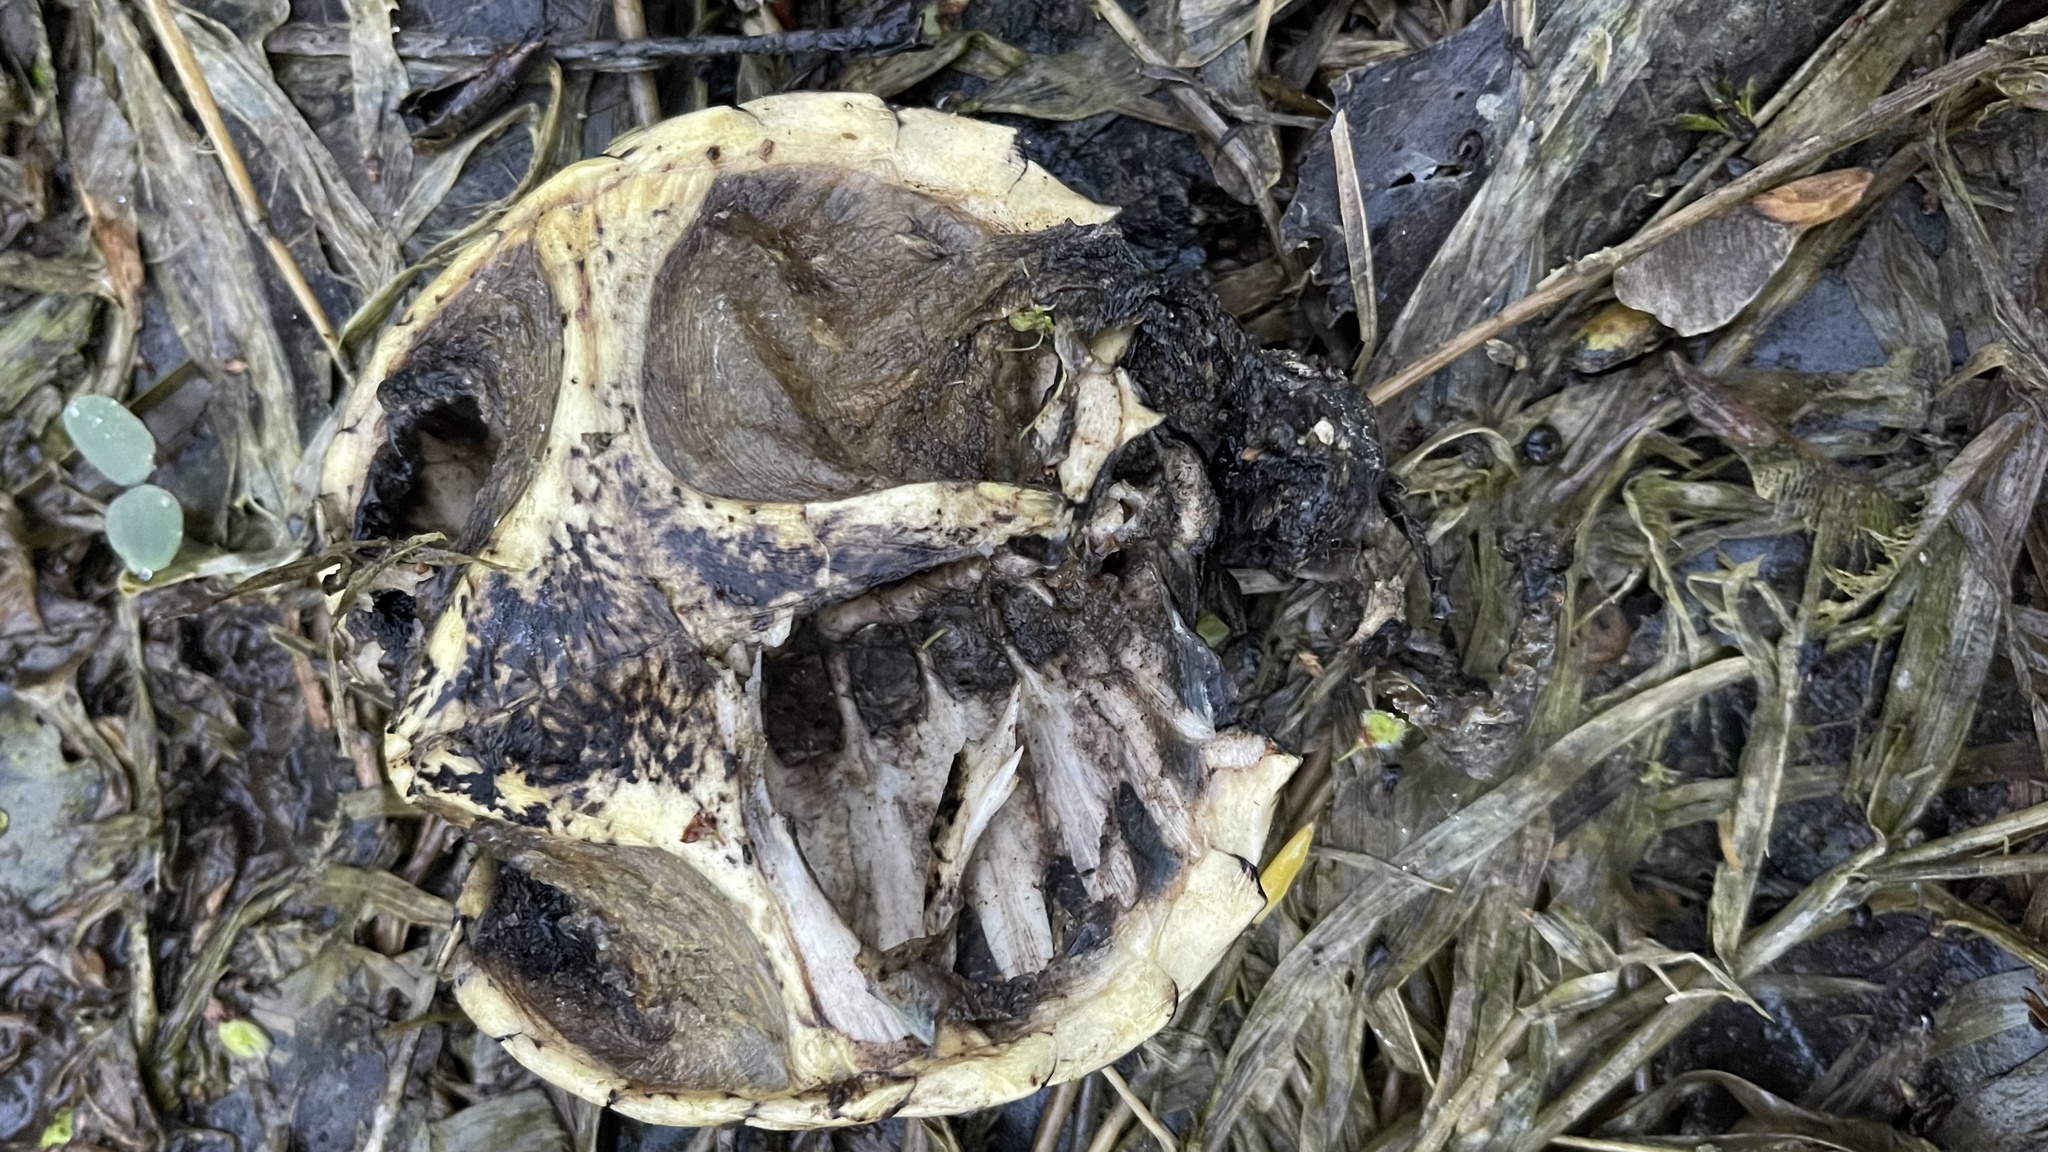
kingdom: Animalia
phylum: Chordata
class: Testudines
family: Chelydridae
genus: Chelydra
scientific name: Chelydra serpentina
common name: Common snapping turtle
